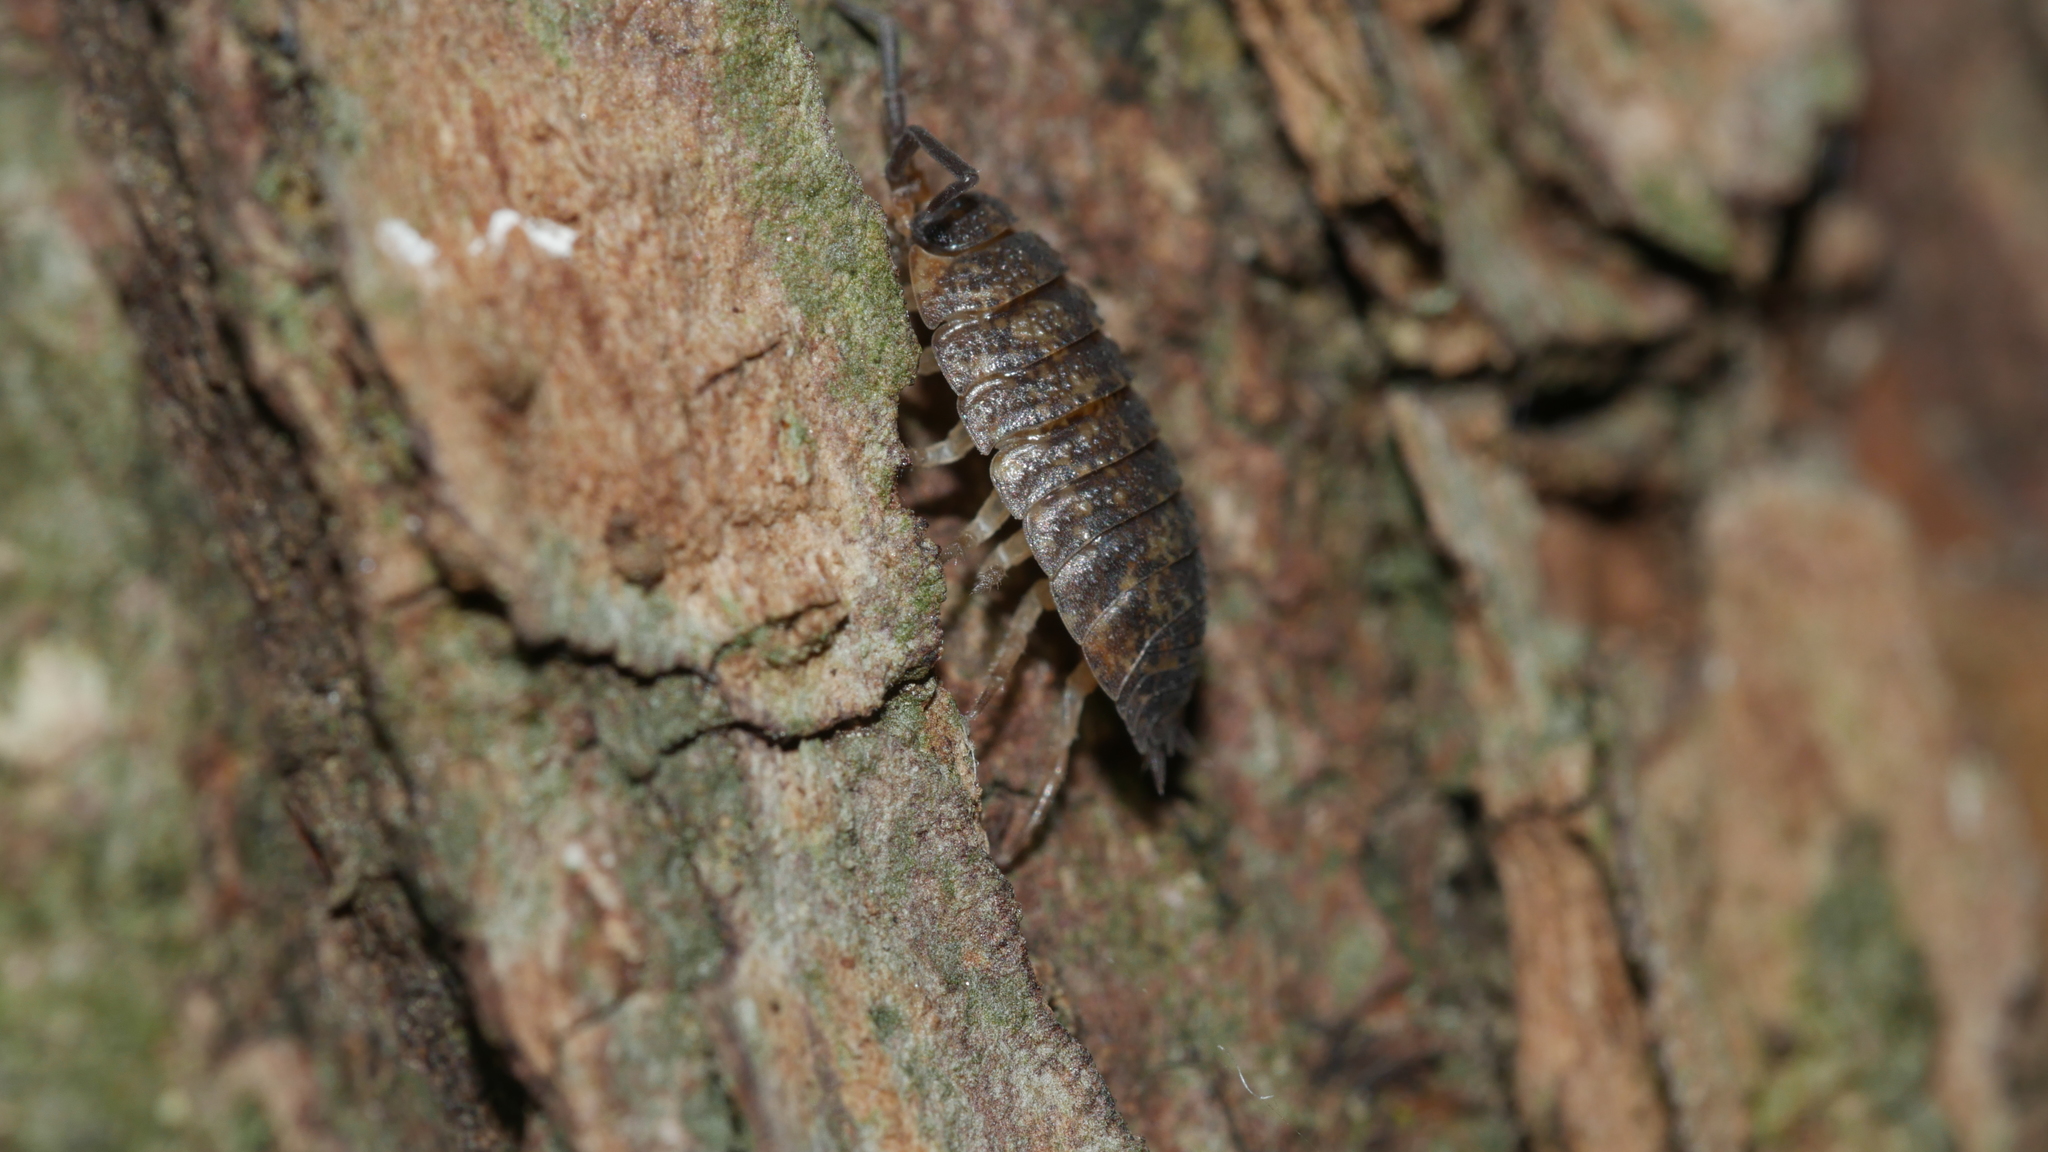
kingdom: Animalia
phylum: Arthropoda
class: Malacostraca
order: Isopoda
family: Porcellionidae
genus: Porcellio
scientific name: Porcellio scaber
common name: Common rough woodlouse
